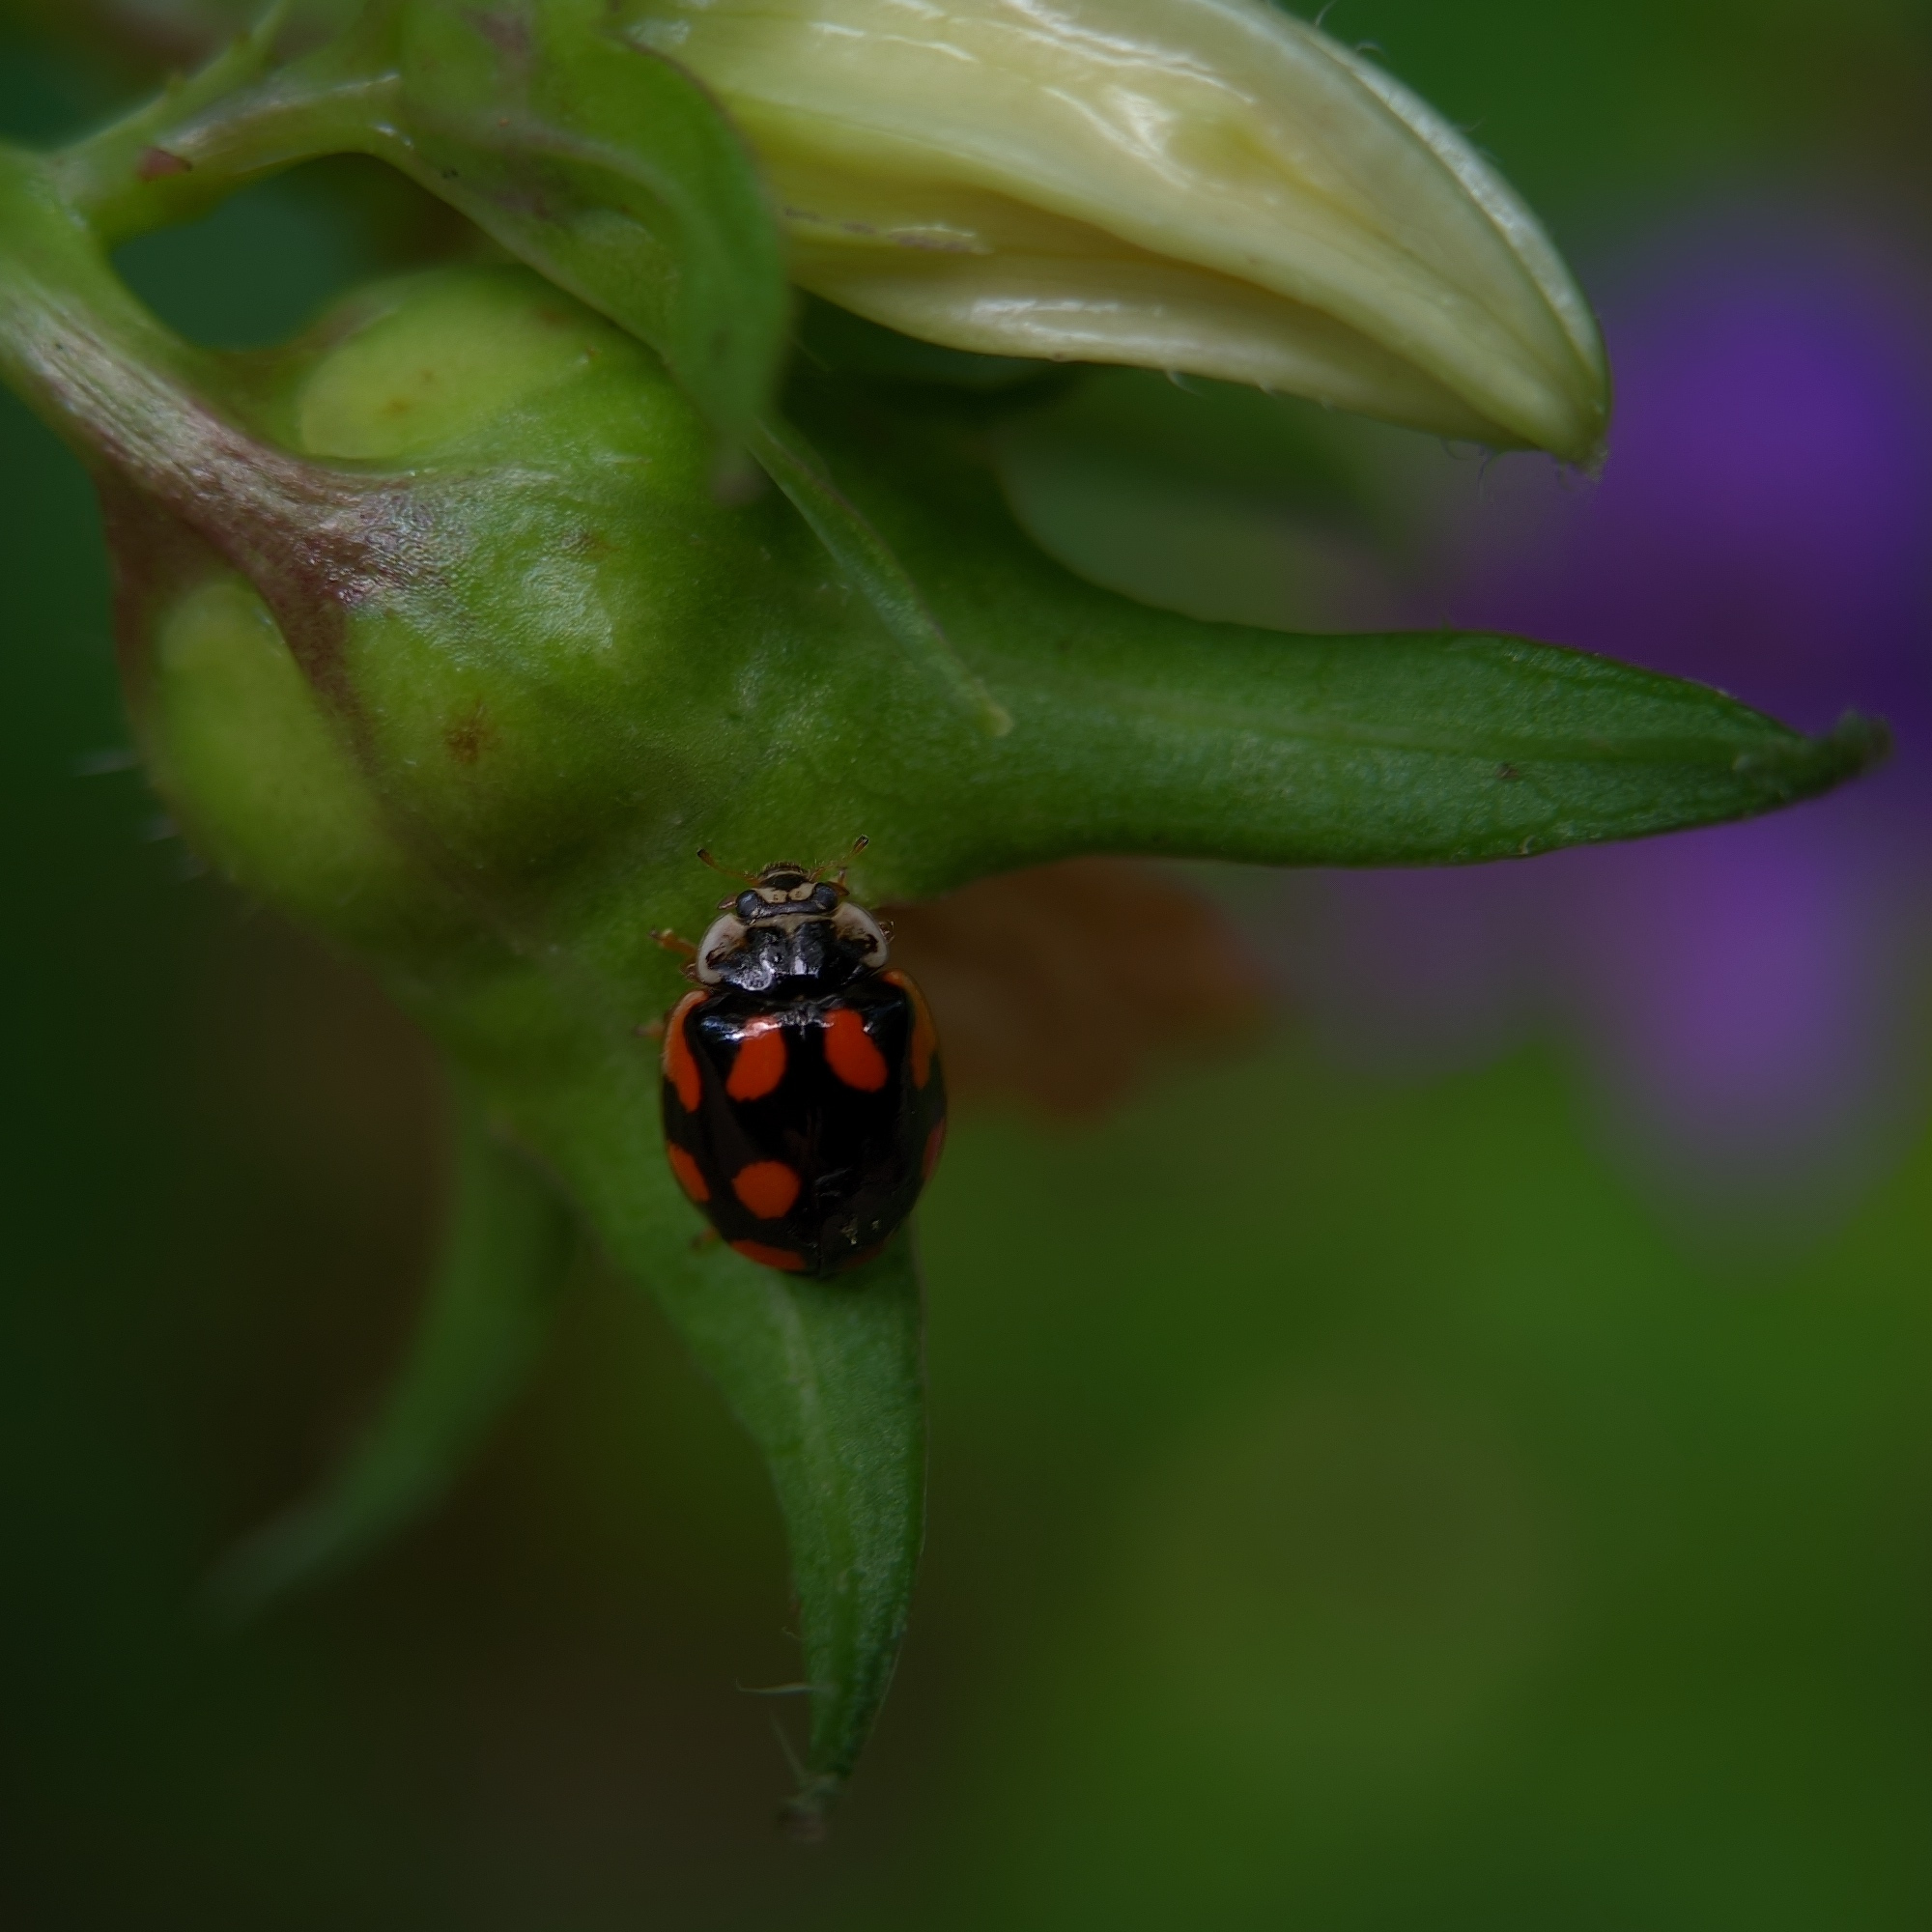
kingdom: Animalia
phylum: Arthropoda
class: Insecta
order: Coleoptera
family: Coccinellidae
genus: Adalia
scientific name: Adalia decempunctata
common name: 10-spot ladybird
